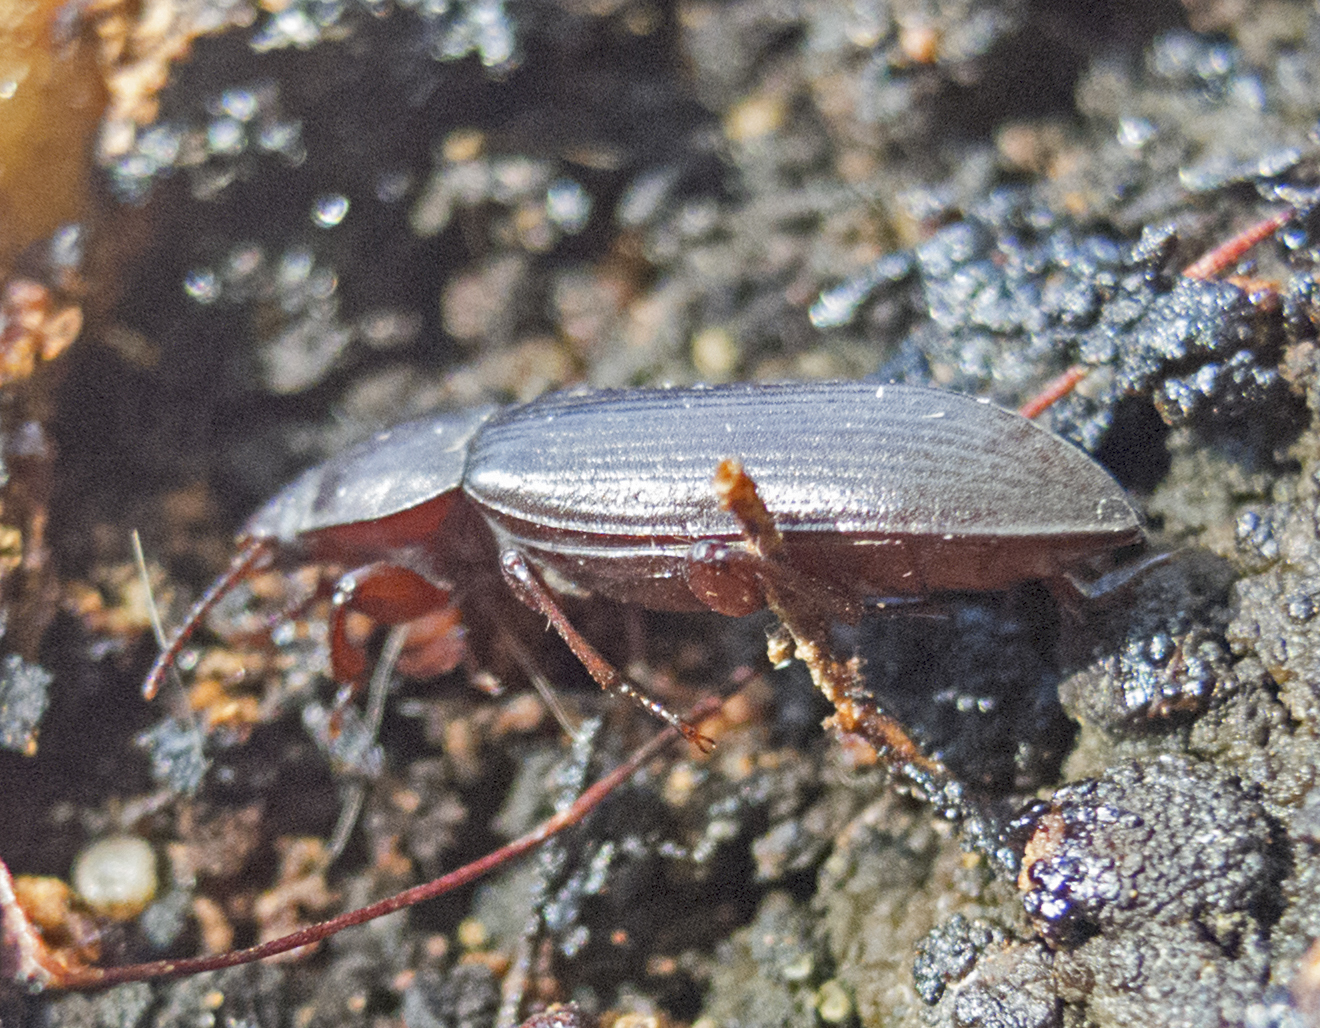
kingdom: Animalia
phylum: Arthropoda
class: Insecta
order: Coleoptera
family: Tenebrionidae
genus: Tenebrio
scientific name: Tenebrio molitor
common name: Hardback beetle
